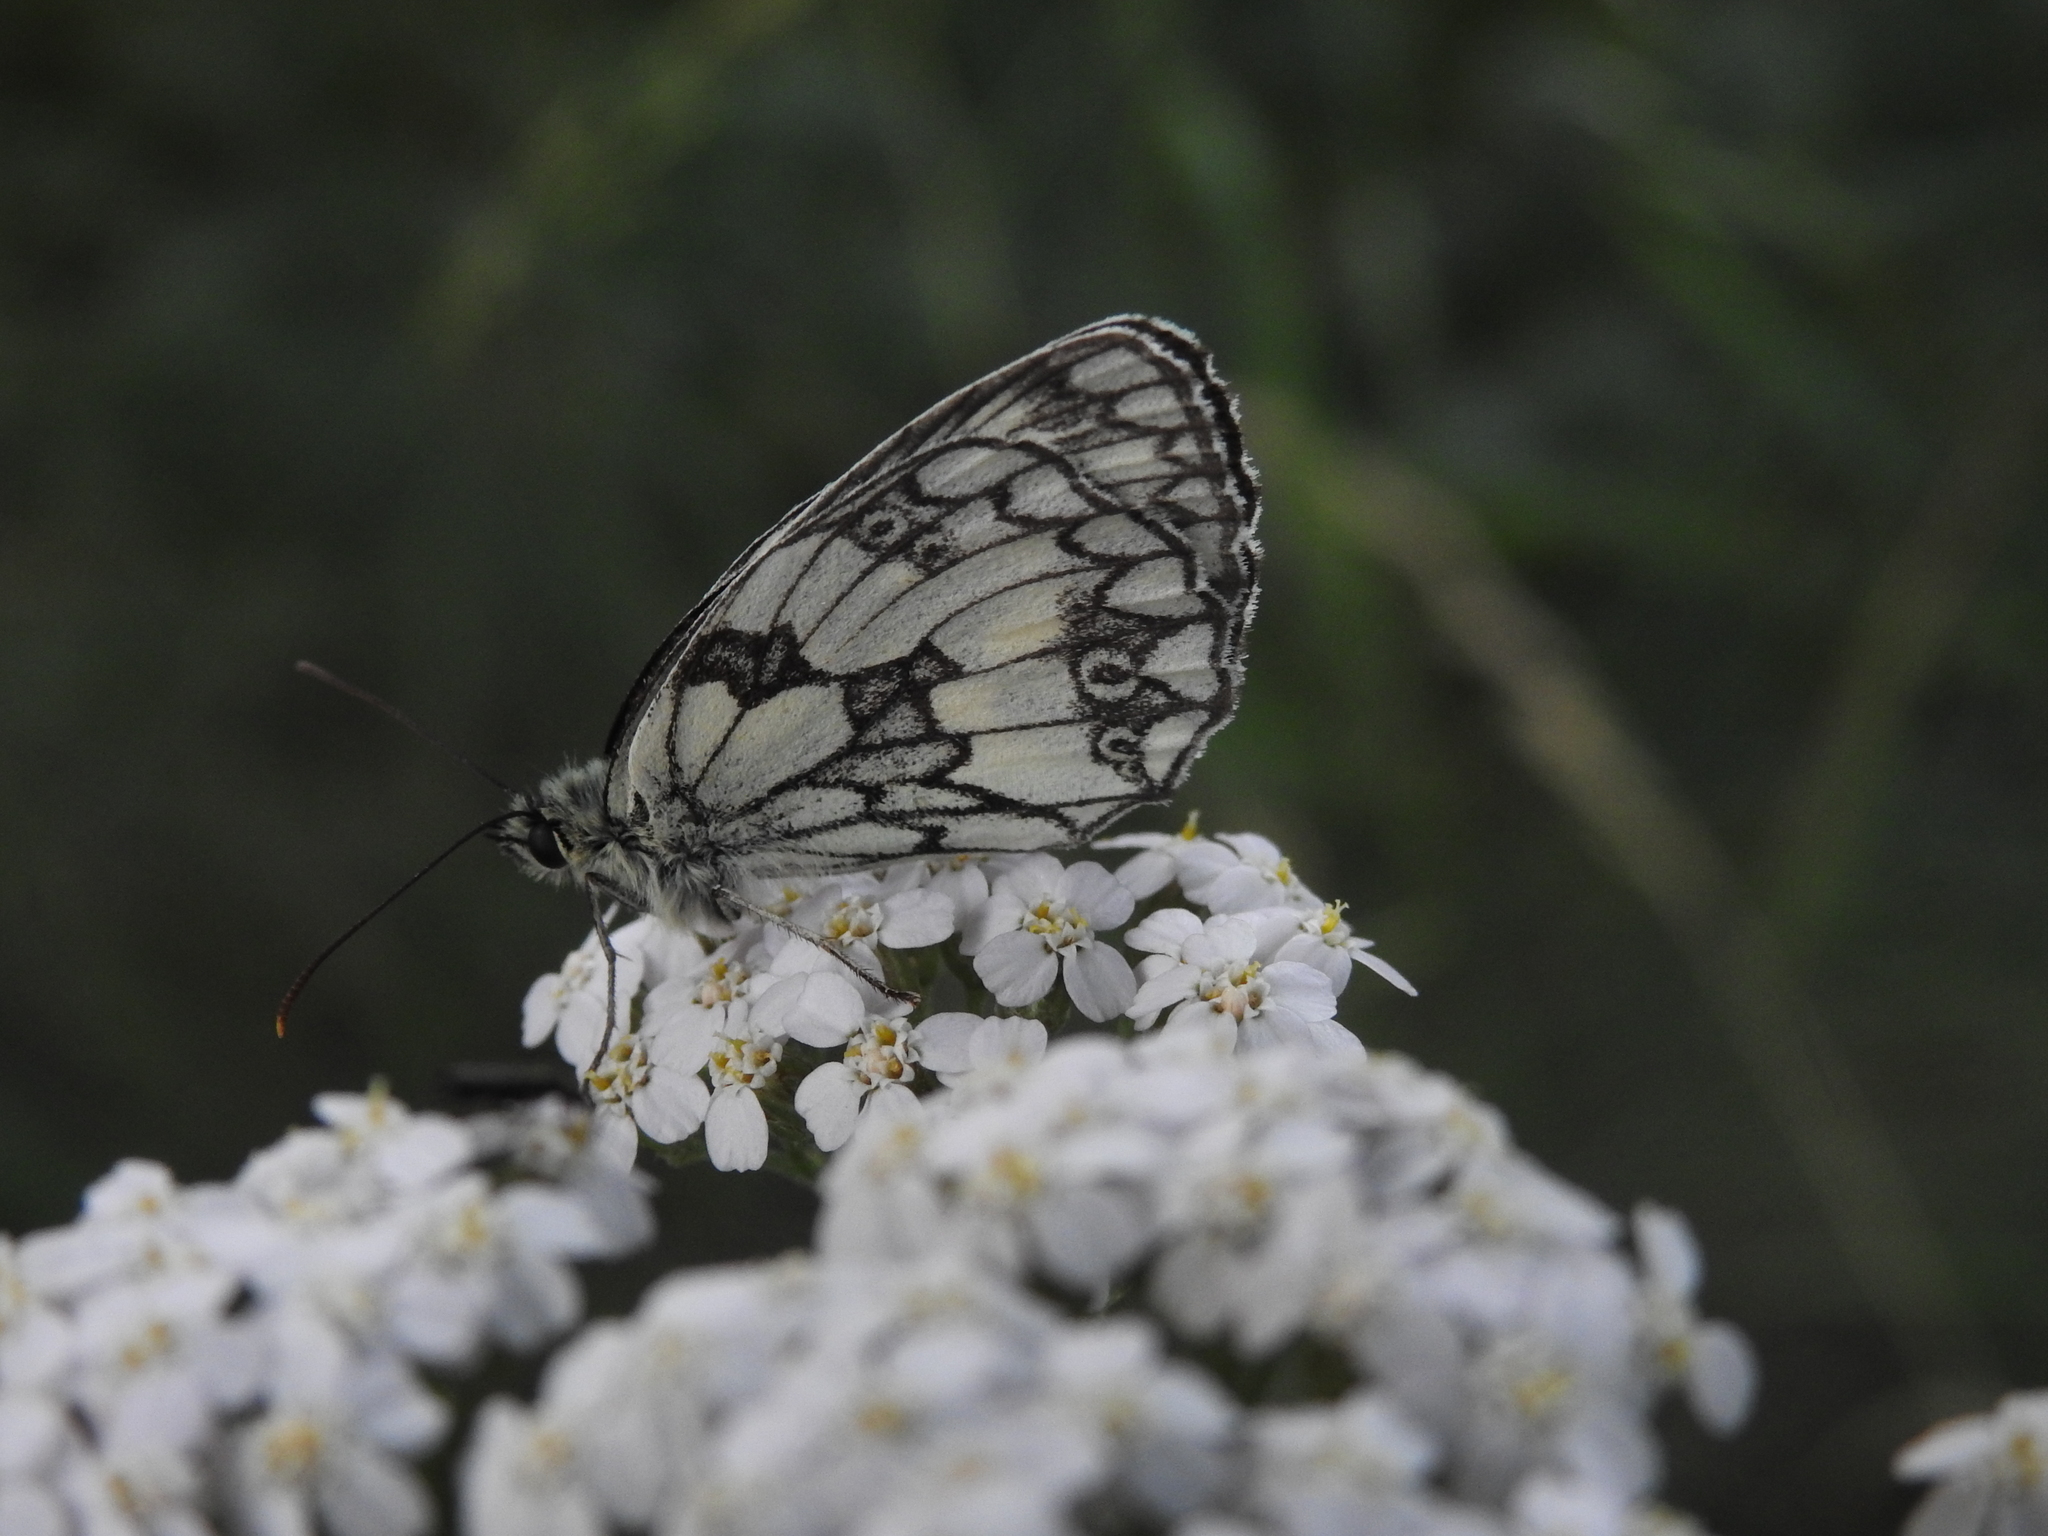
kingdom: Animalia
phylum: Arthropoda
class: Insecta
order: Lepidoptera
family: Nymphalidae
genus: Melanargia
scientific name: Melanargia galathea
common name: Marbled white
